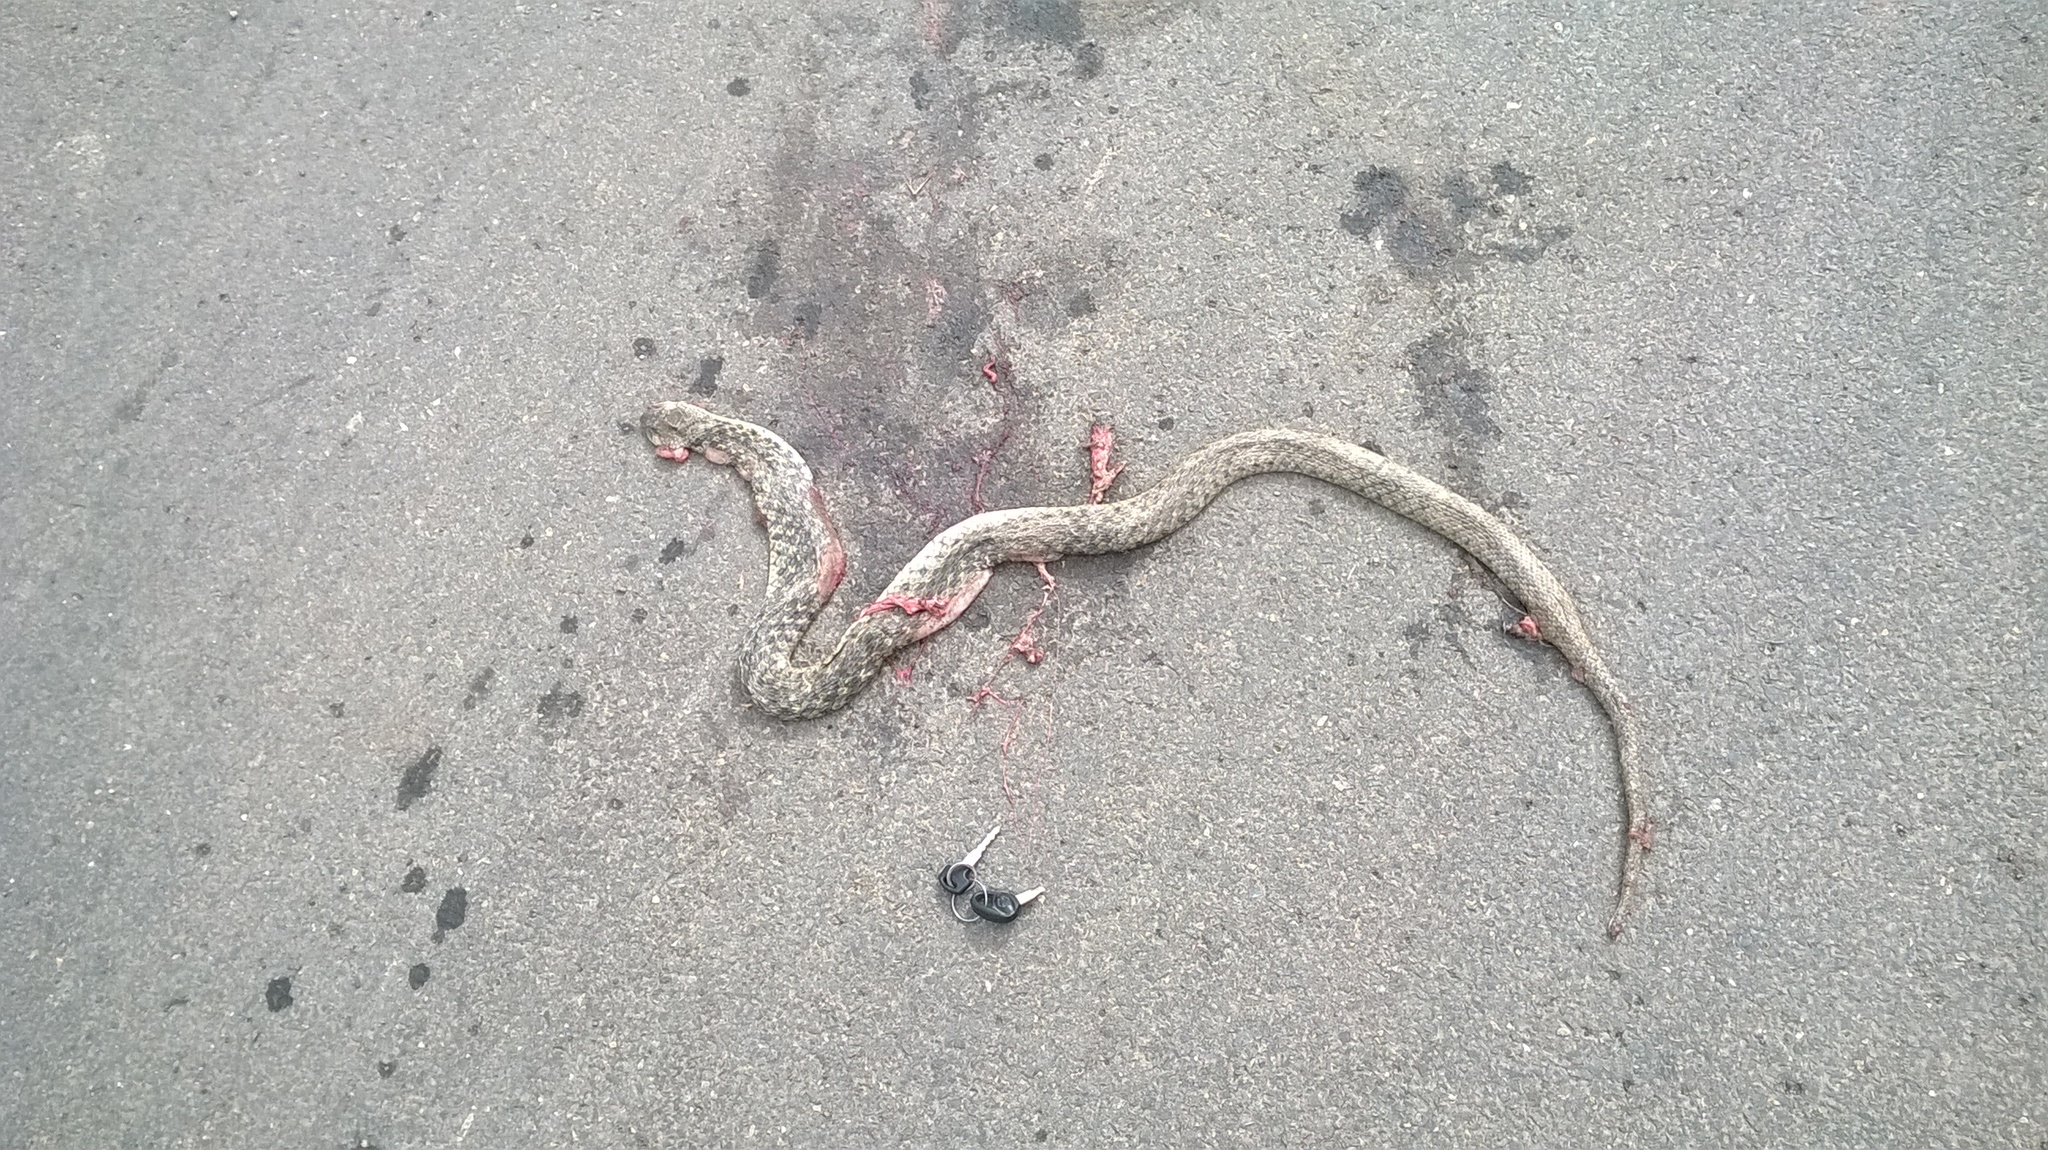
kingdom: Animalia
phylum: Chordata
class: Squamata
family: Colubridae
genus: Fowlea
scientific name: Fowlea piscator
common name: Asiatic water snake
